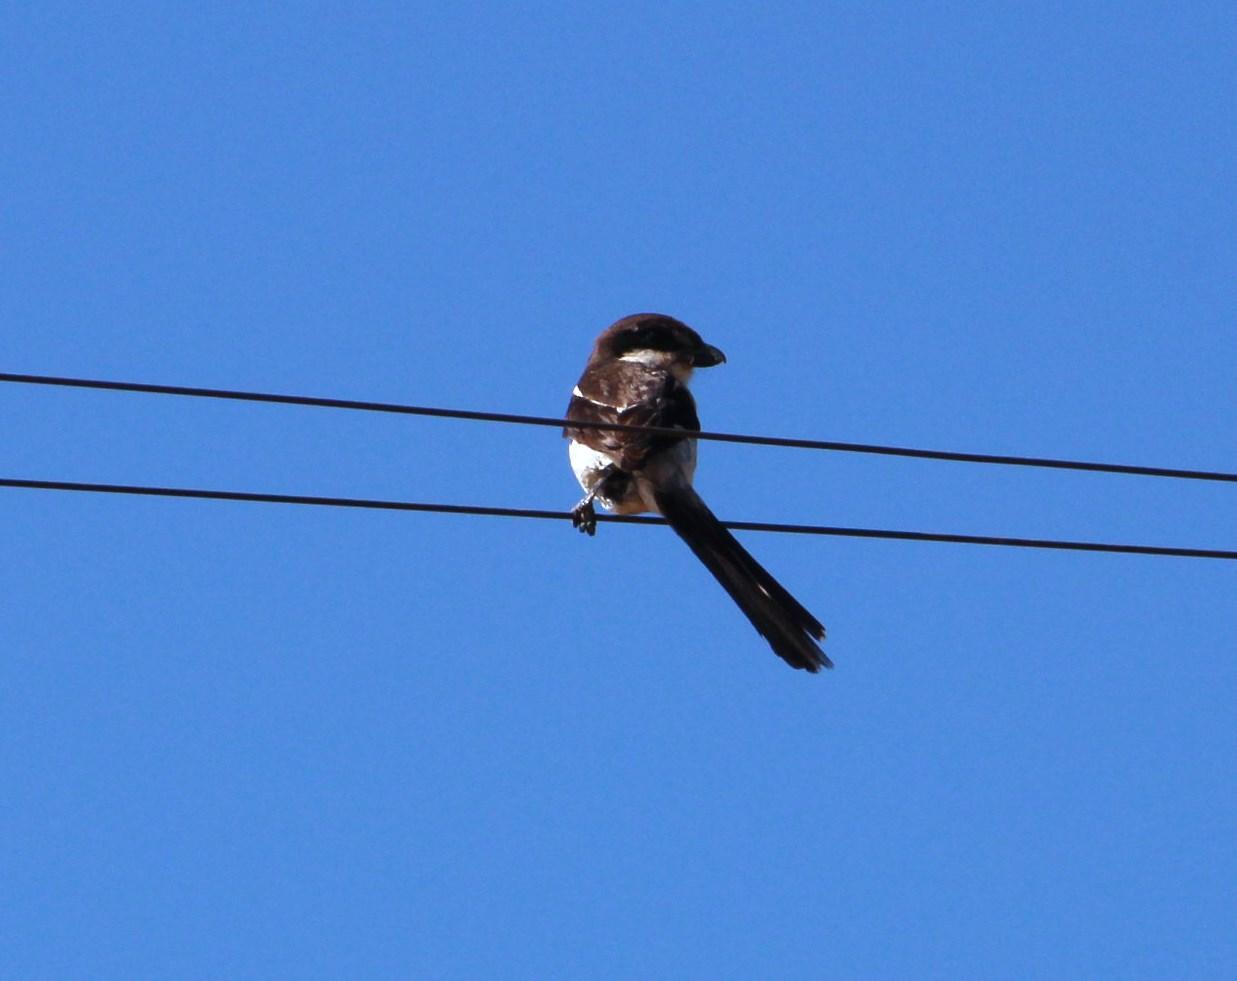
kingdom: Animalia
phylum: Chordata
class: Aves
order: Passeriformes
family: Laniidae
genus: Lanius
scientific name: Lanius collaris
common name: Southern fiscal
